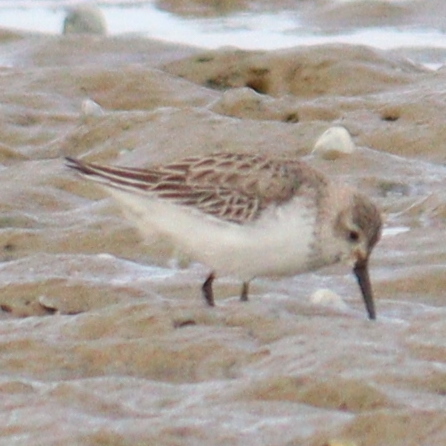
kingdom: Animalia
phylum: Chordata
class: Aves
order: Charadriiformes
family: Scolopacidae
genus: Calidris
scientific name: Calidris alpina
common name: Dunlin
